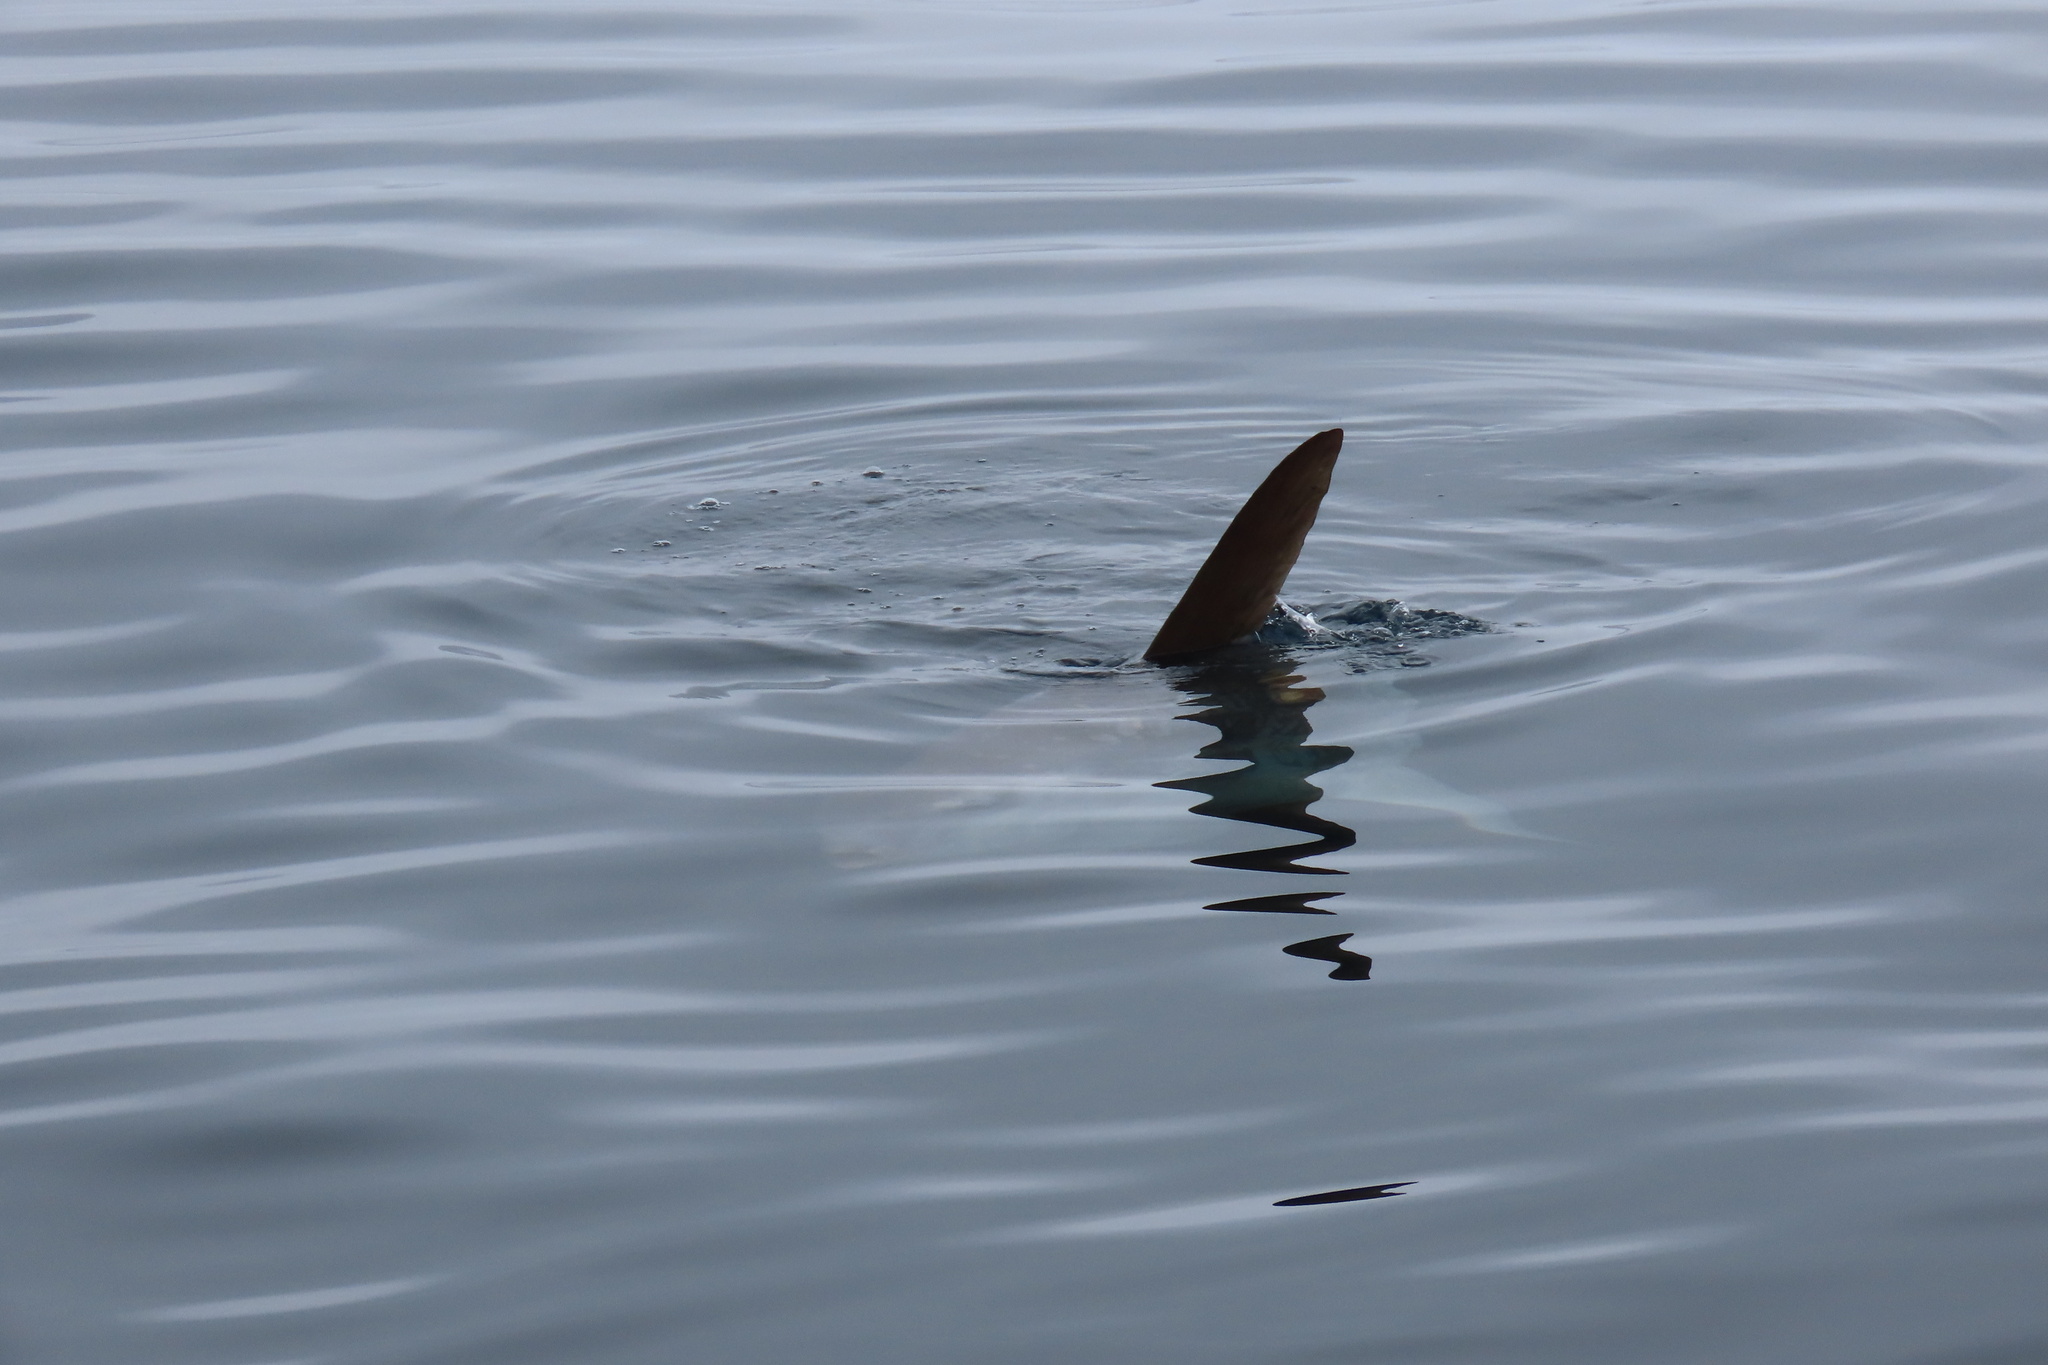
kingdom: Animalia
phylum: Chordata
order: Tetraodontiformes
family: Molidae
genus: Mola
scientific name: Mola mola
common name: Ocean sunfish
